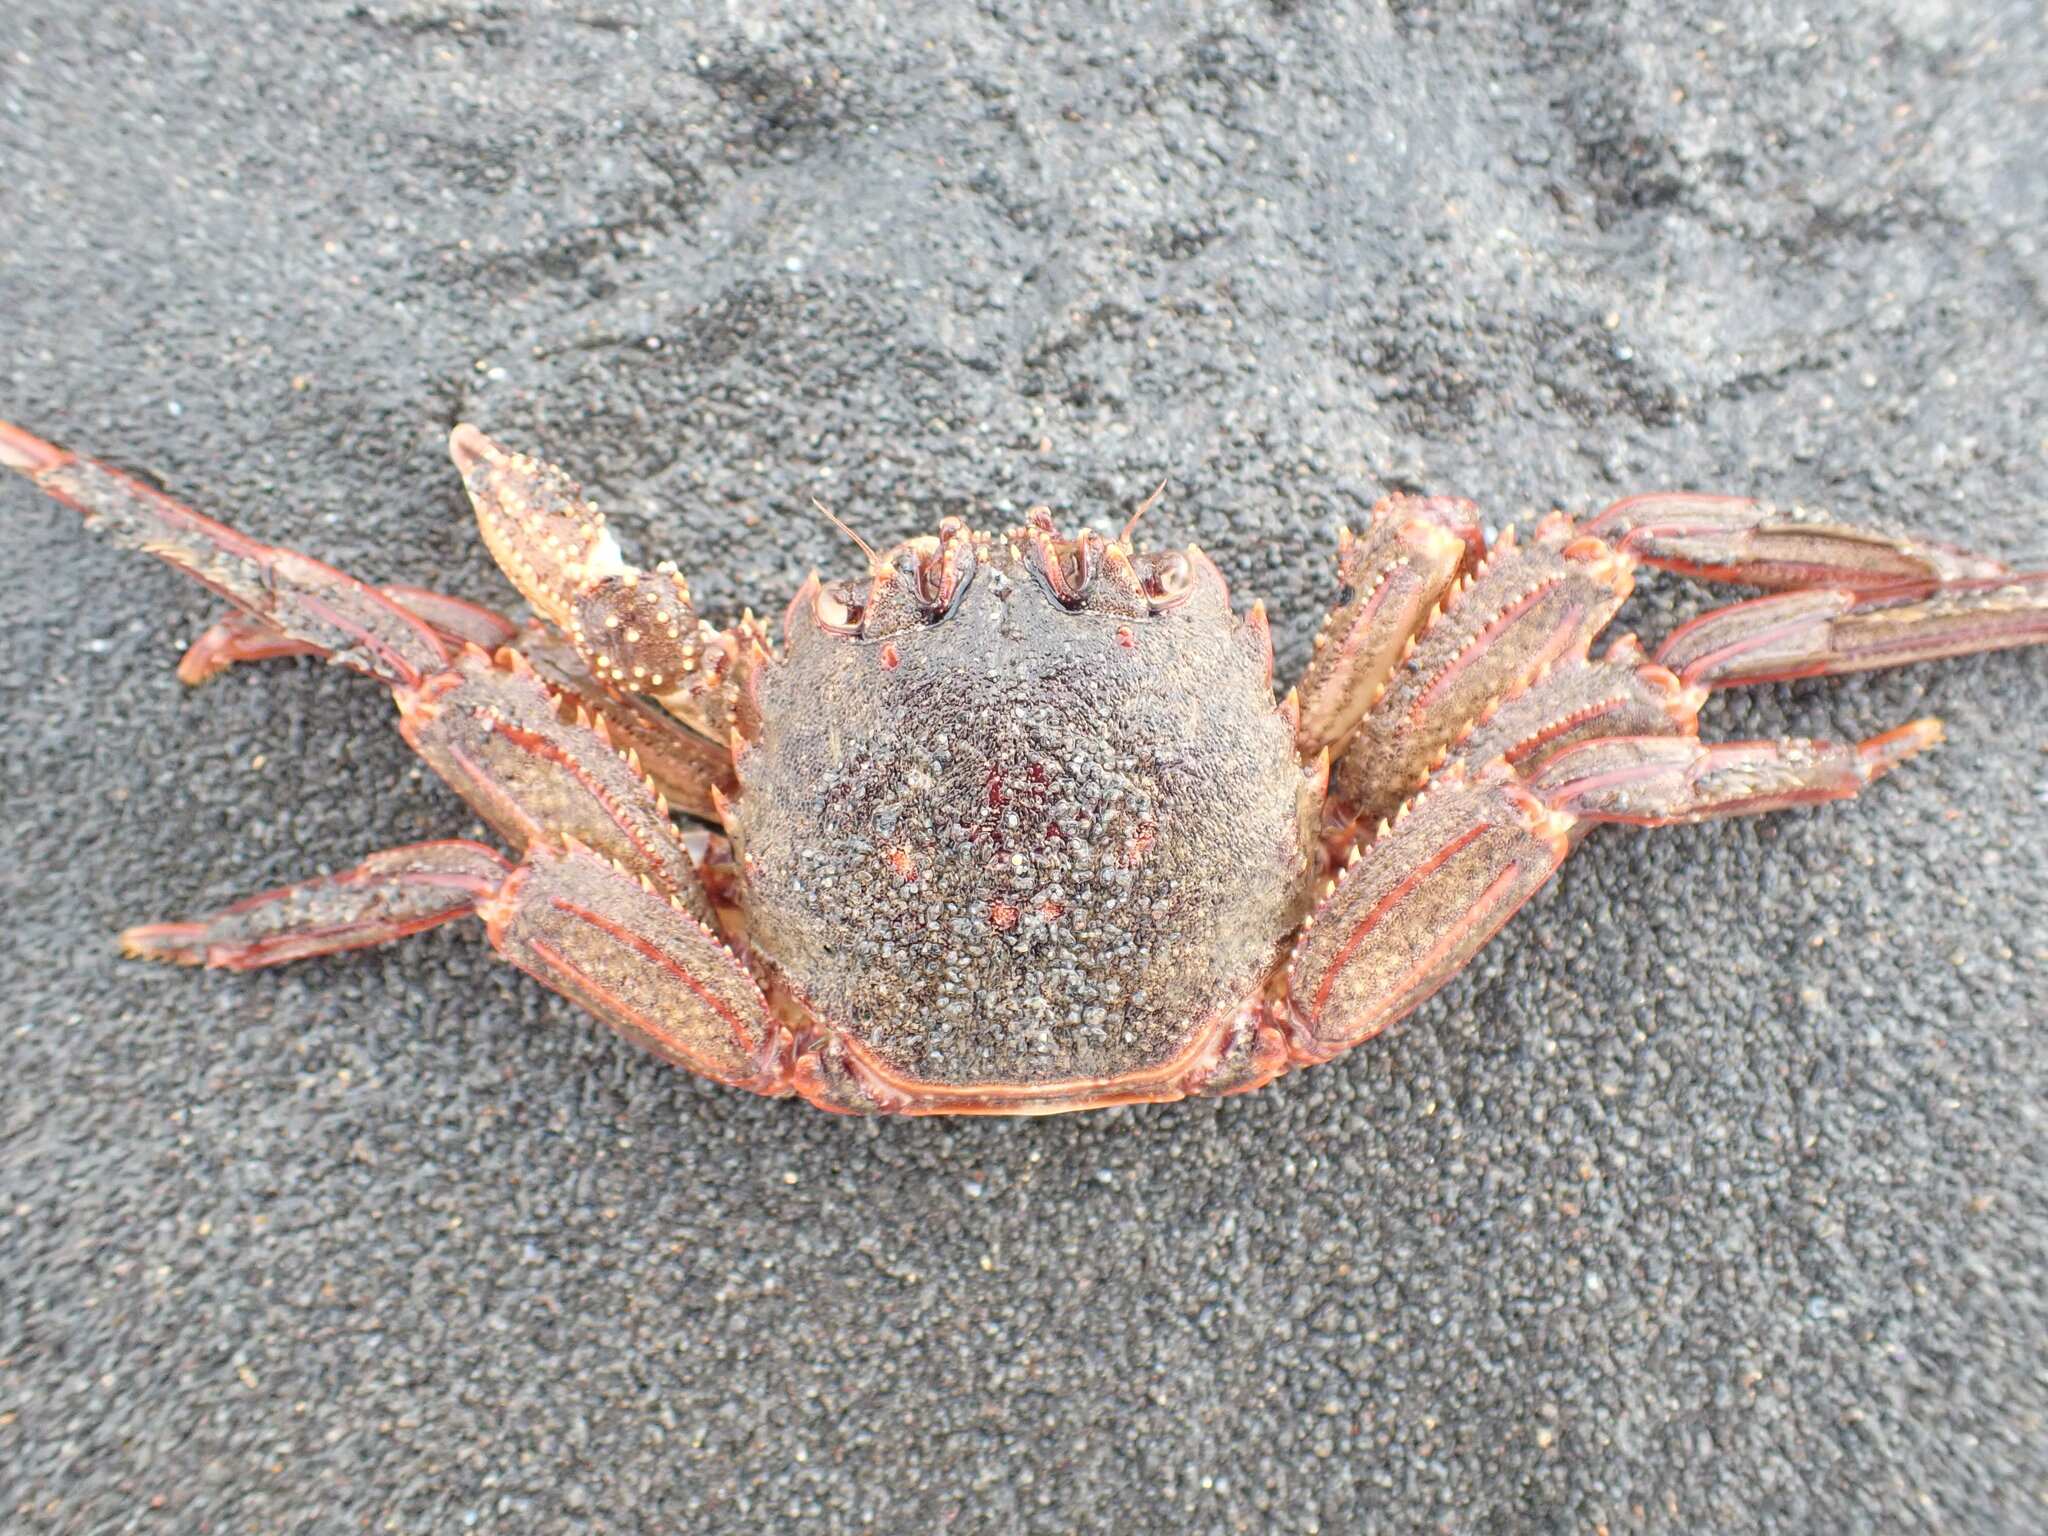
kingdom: Animalia
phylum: Arthropoda
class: Malacostraca
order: Decapoda
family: Plagusiidae
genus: Guinusia
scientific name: Guinusia chabrus
